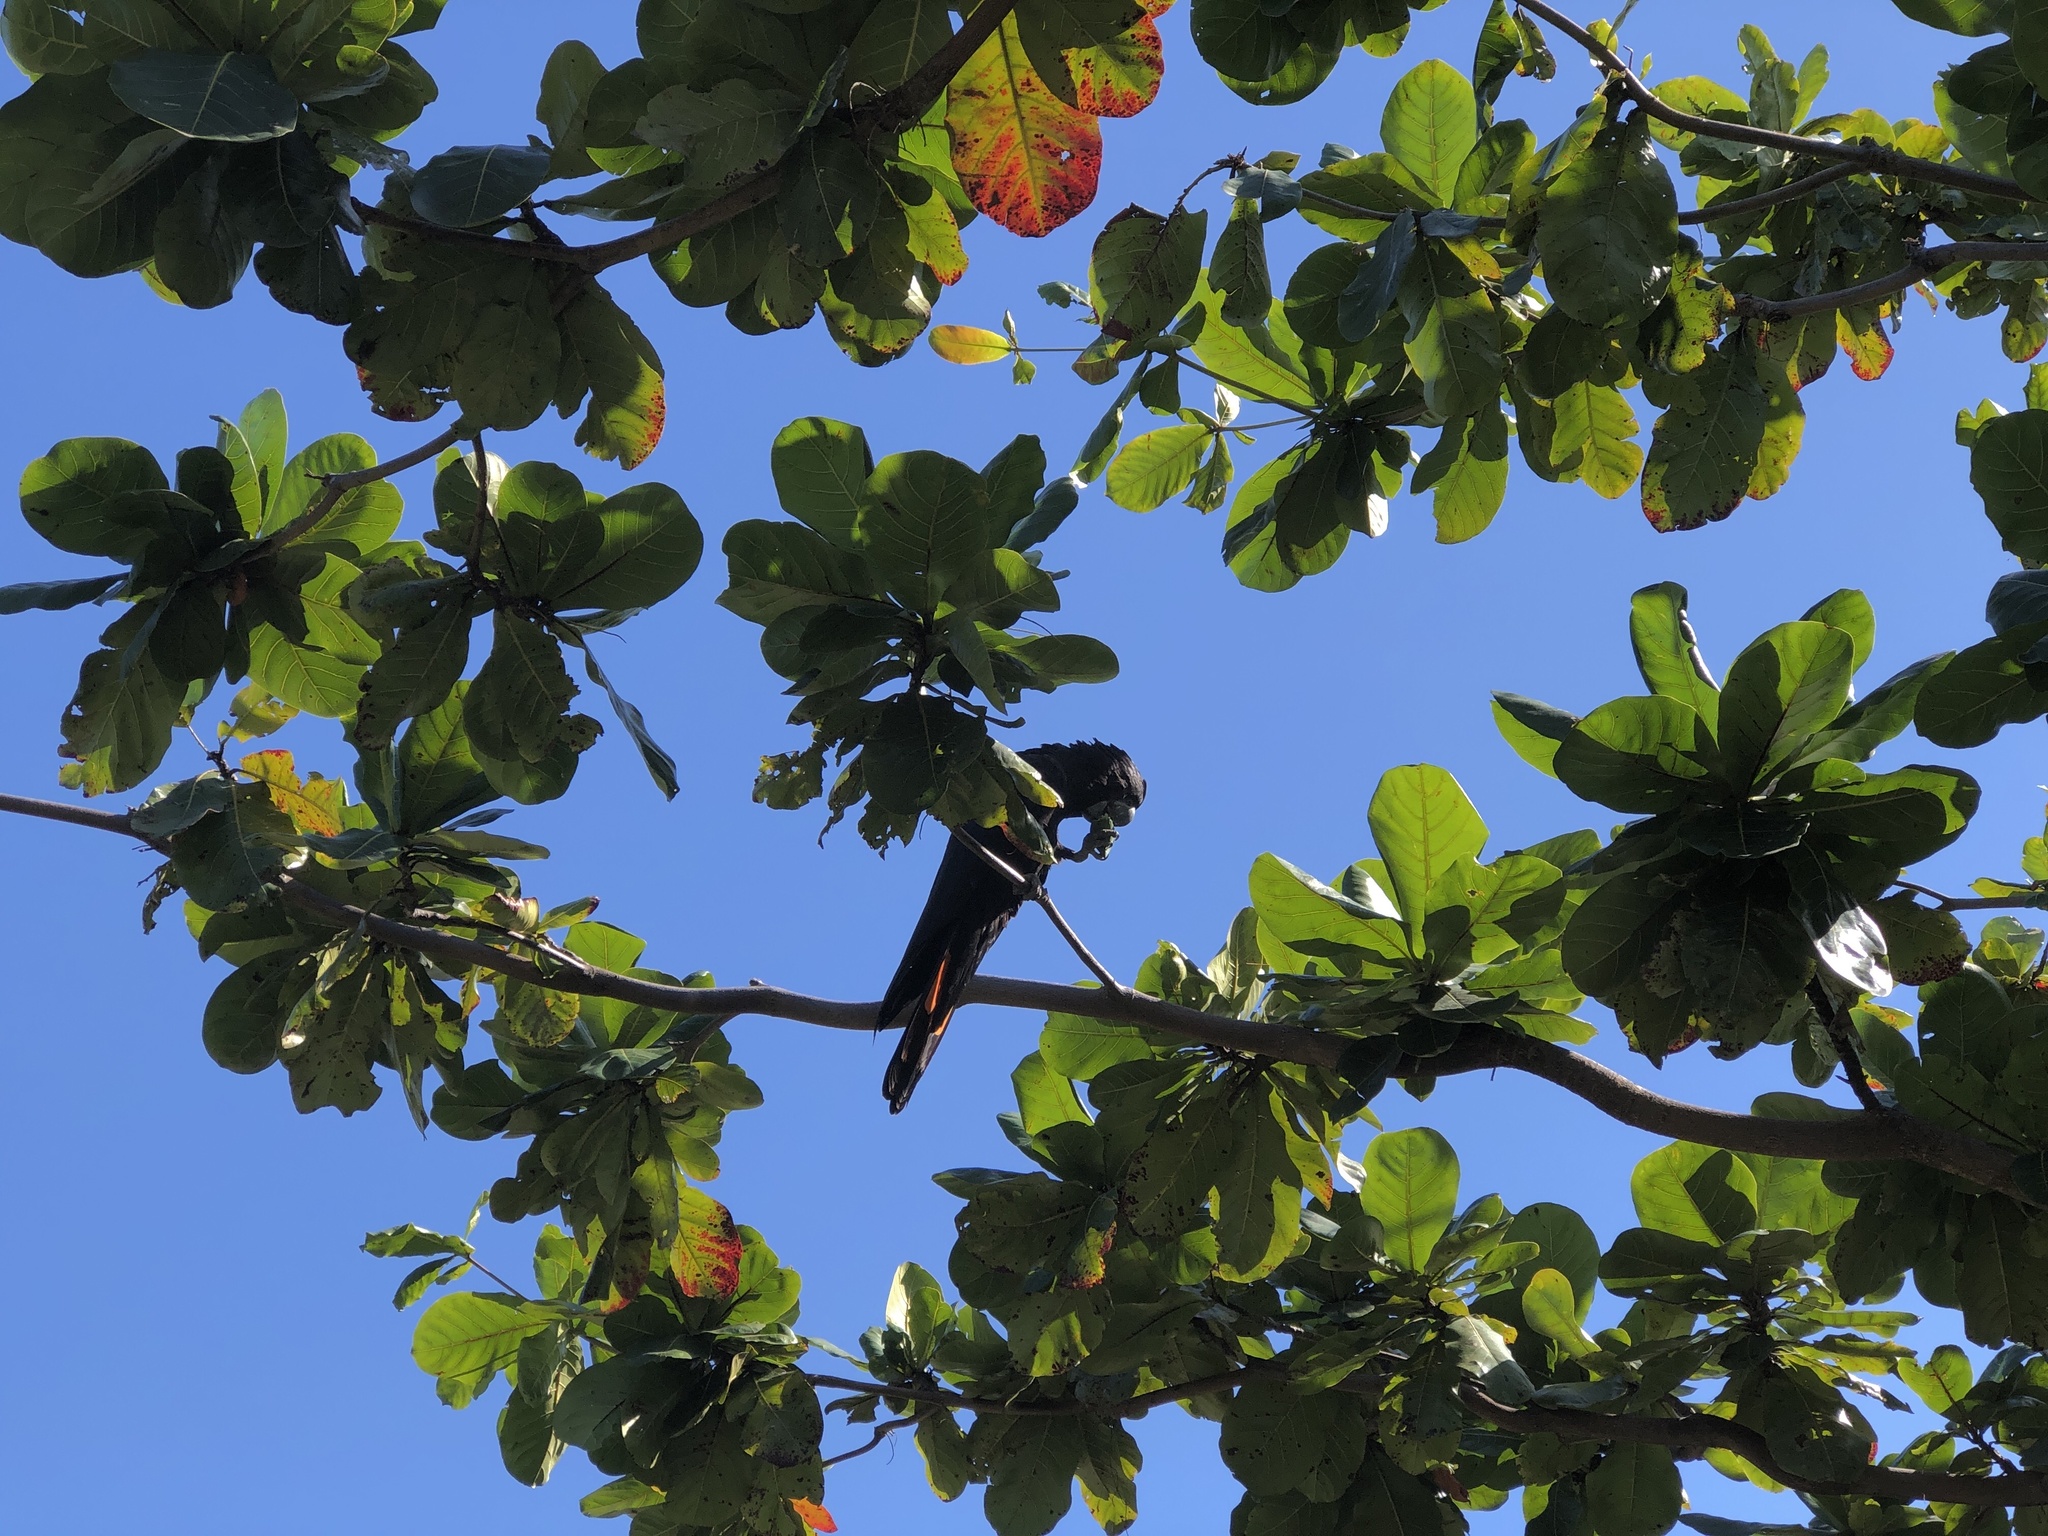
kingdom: Animalia
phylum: Chordata
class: Aves
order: Psittaciformes
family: Psittacidae
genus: Calyptorhynchus
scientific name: Calyptorhynchus banksii
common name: Red-tailed black cockatoo
